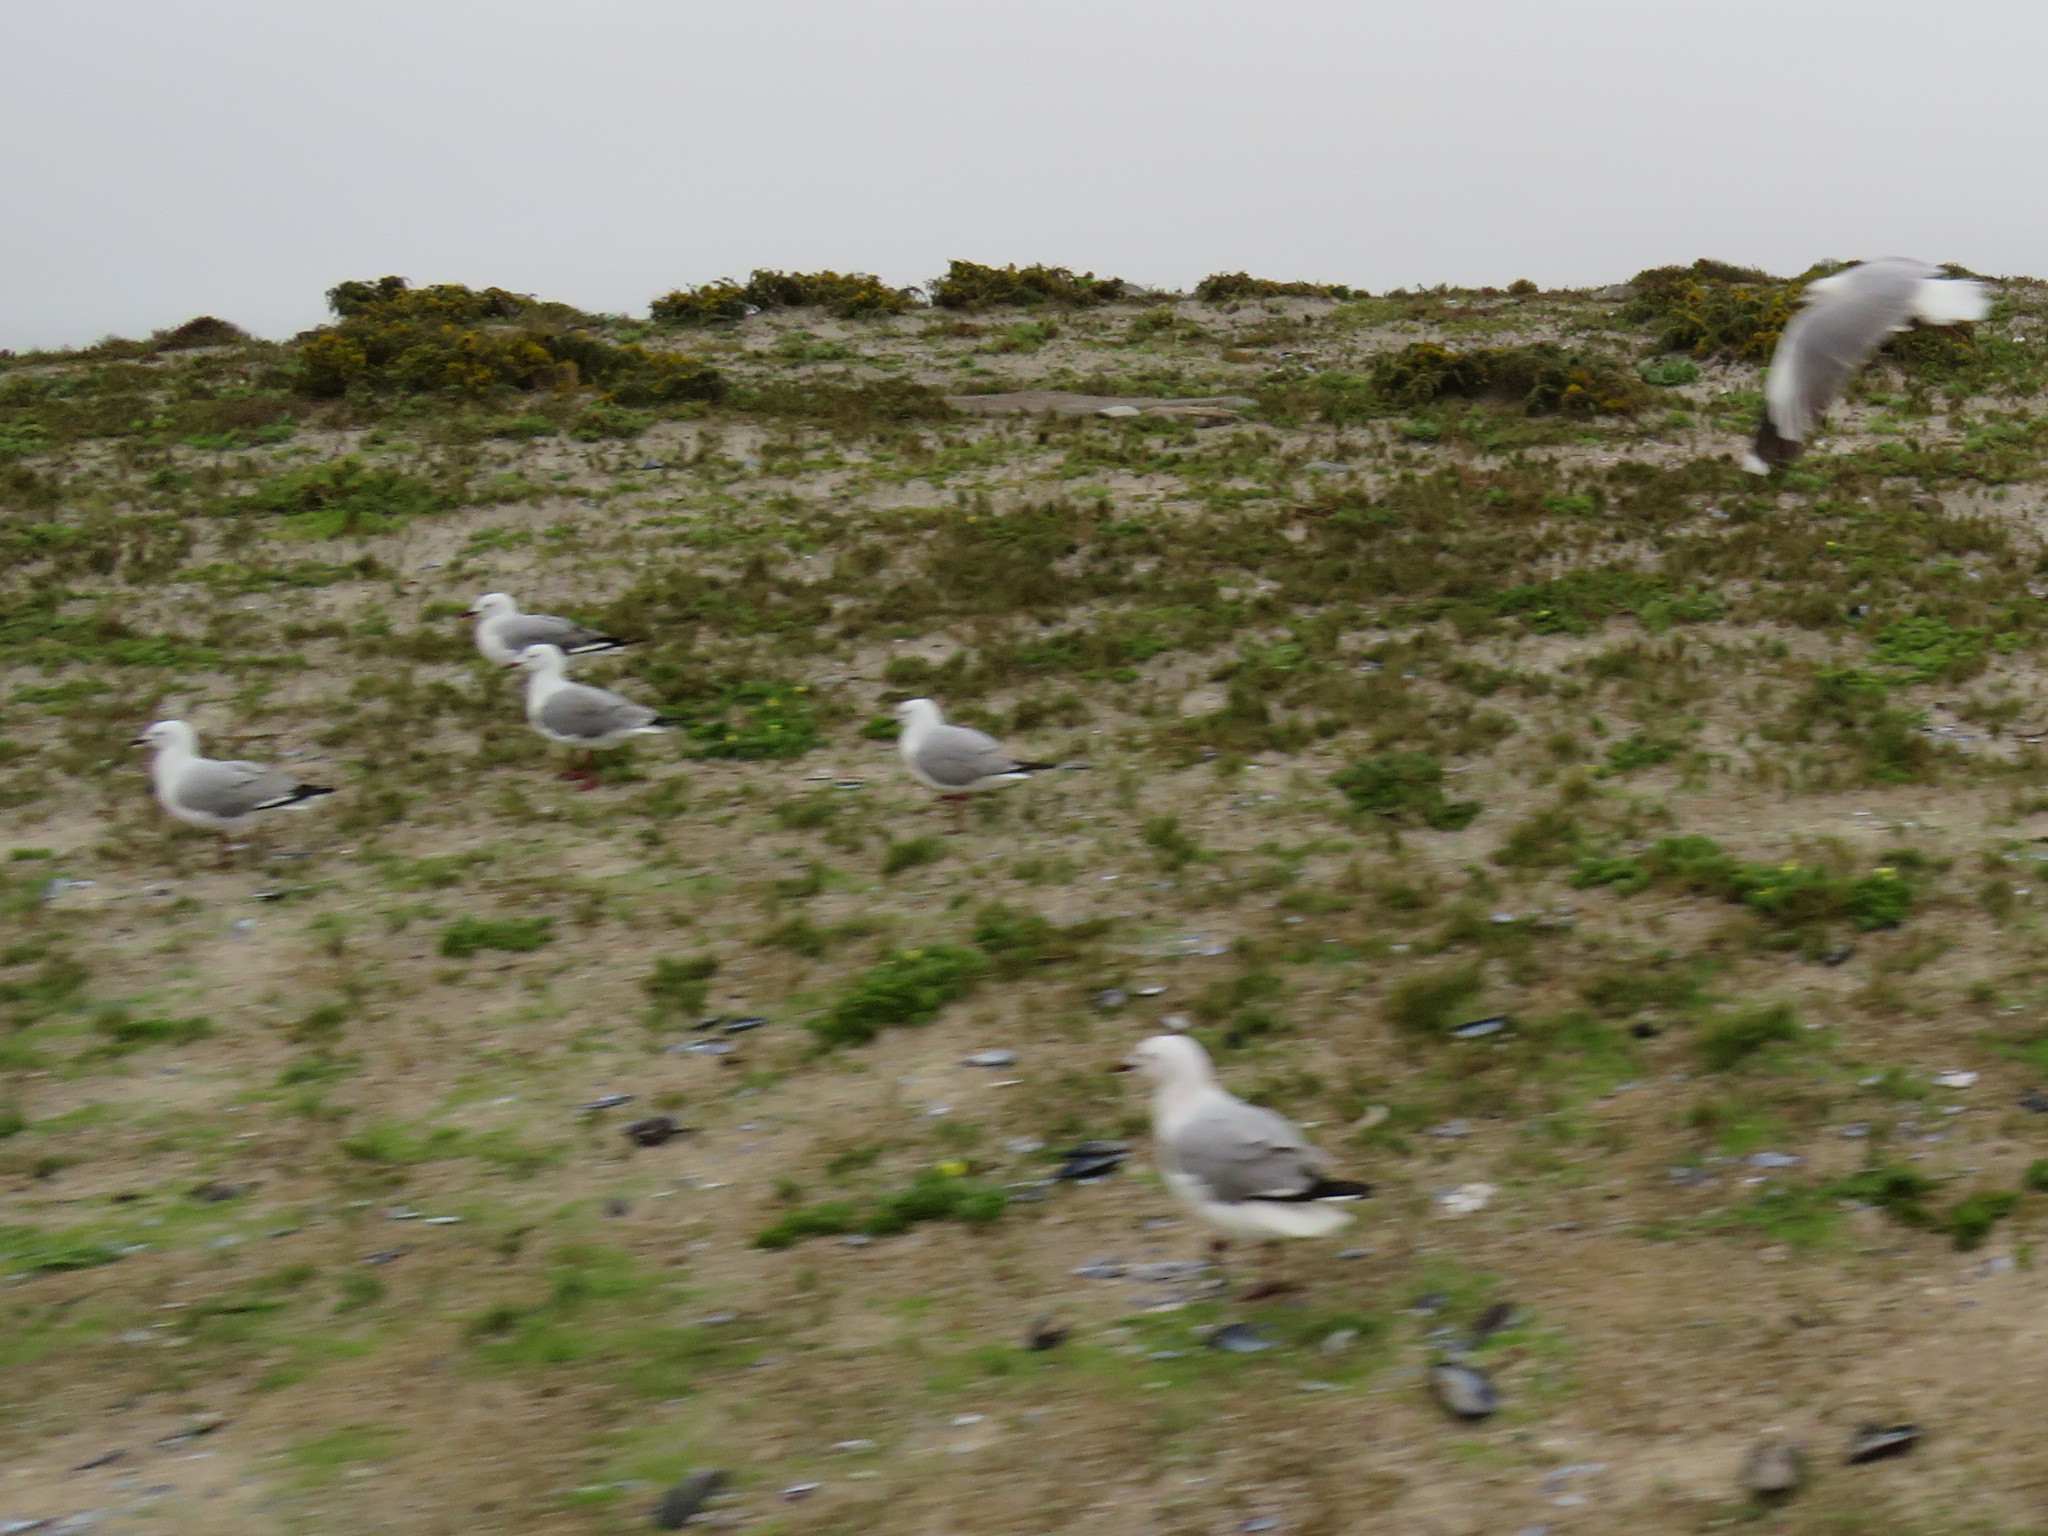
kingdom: Animalia
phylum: Chordata
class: Aves
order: Charadriiformes
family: Laridae
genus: Chroicocephalus
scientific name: Chroicocephalus hartlaubii
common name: Hartlaub's gull
